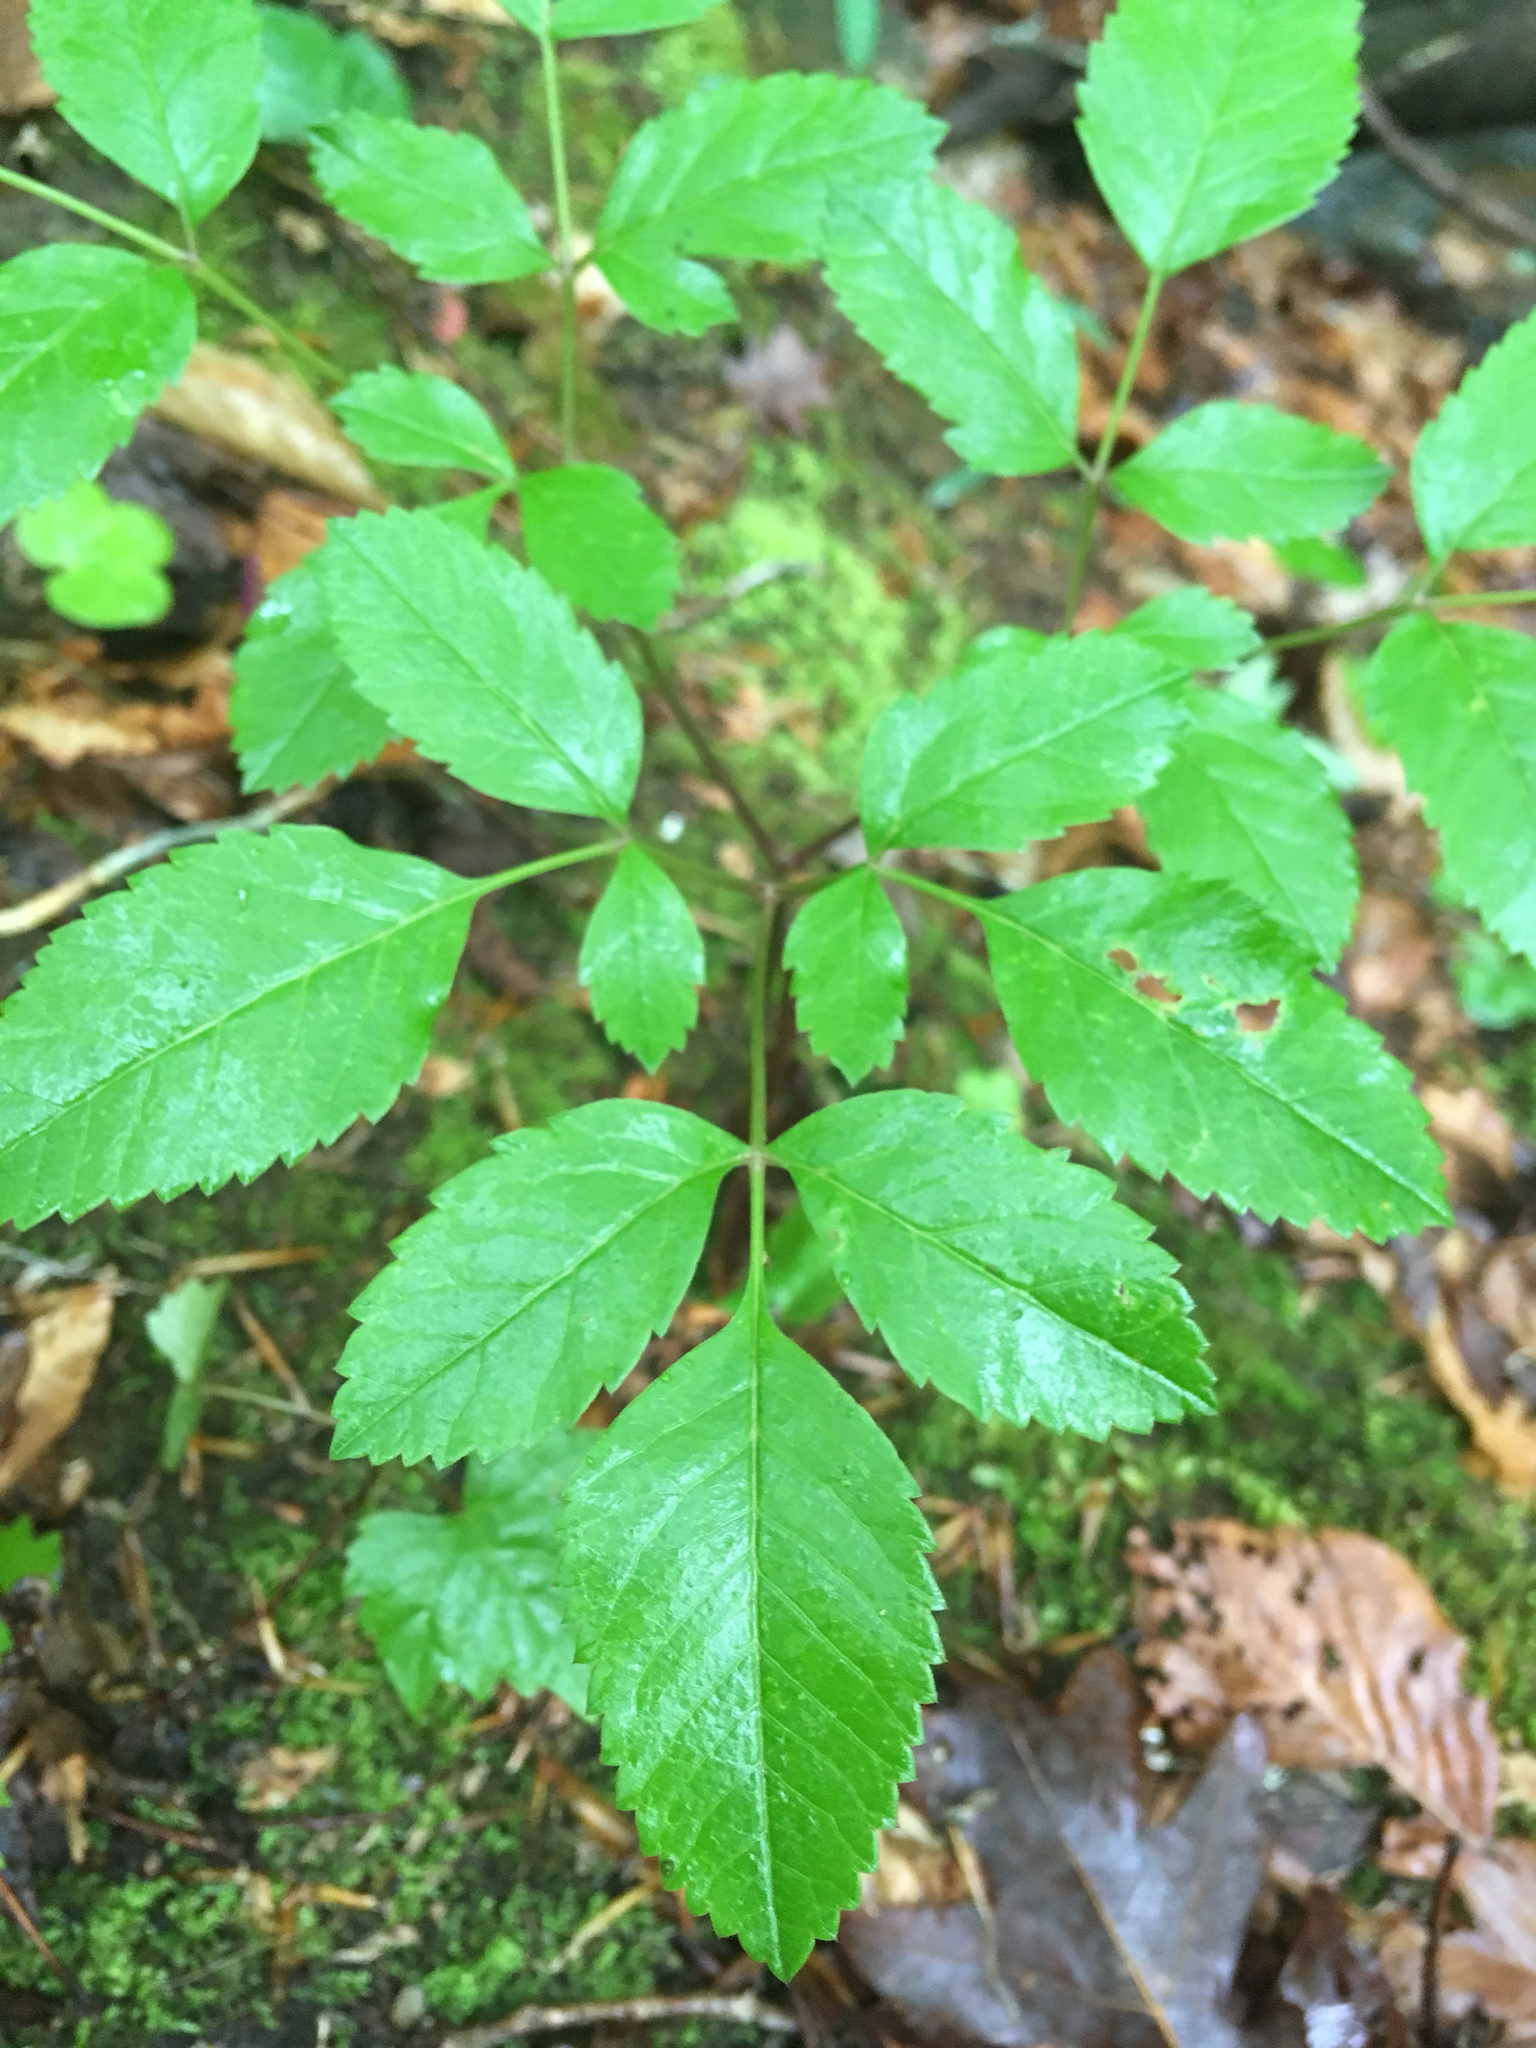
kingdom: Plantae
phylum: Tracheophyta
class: Magnoliopsida
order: Apiales
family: Apiaceae
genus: Ligusticum
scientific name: Ligusticum canadense
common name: American lovage
